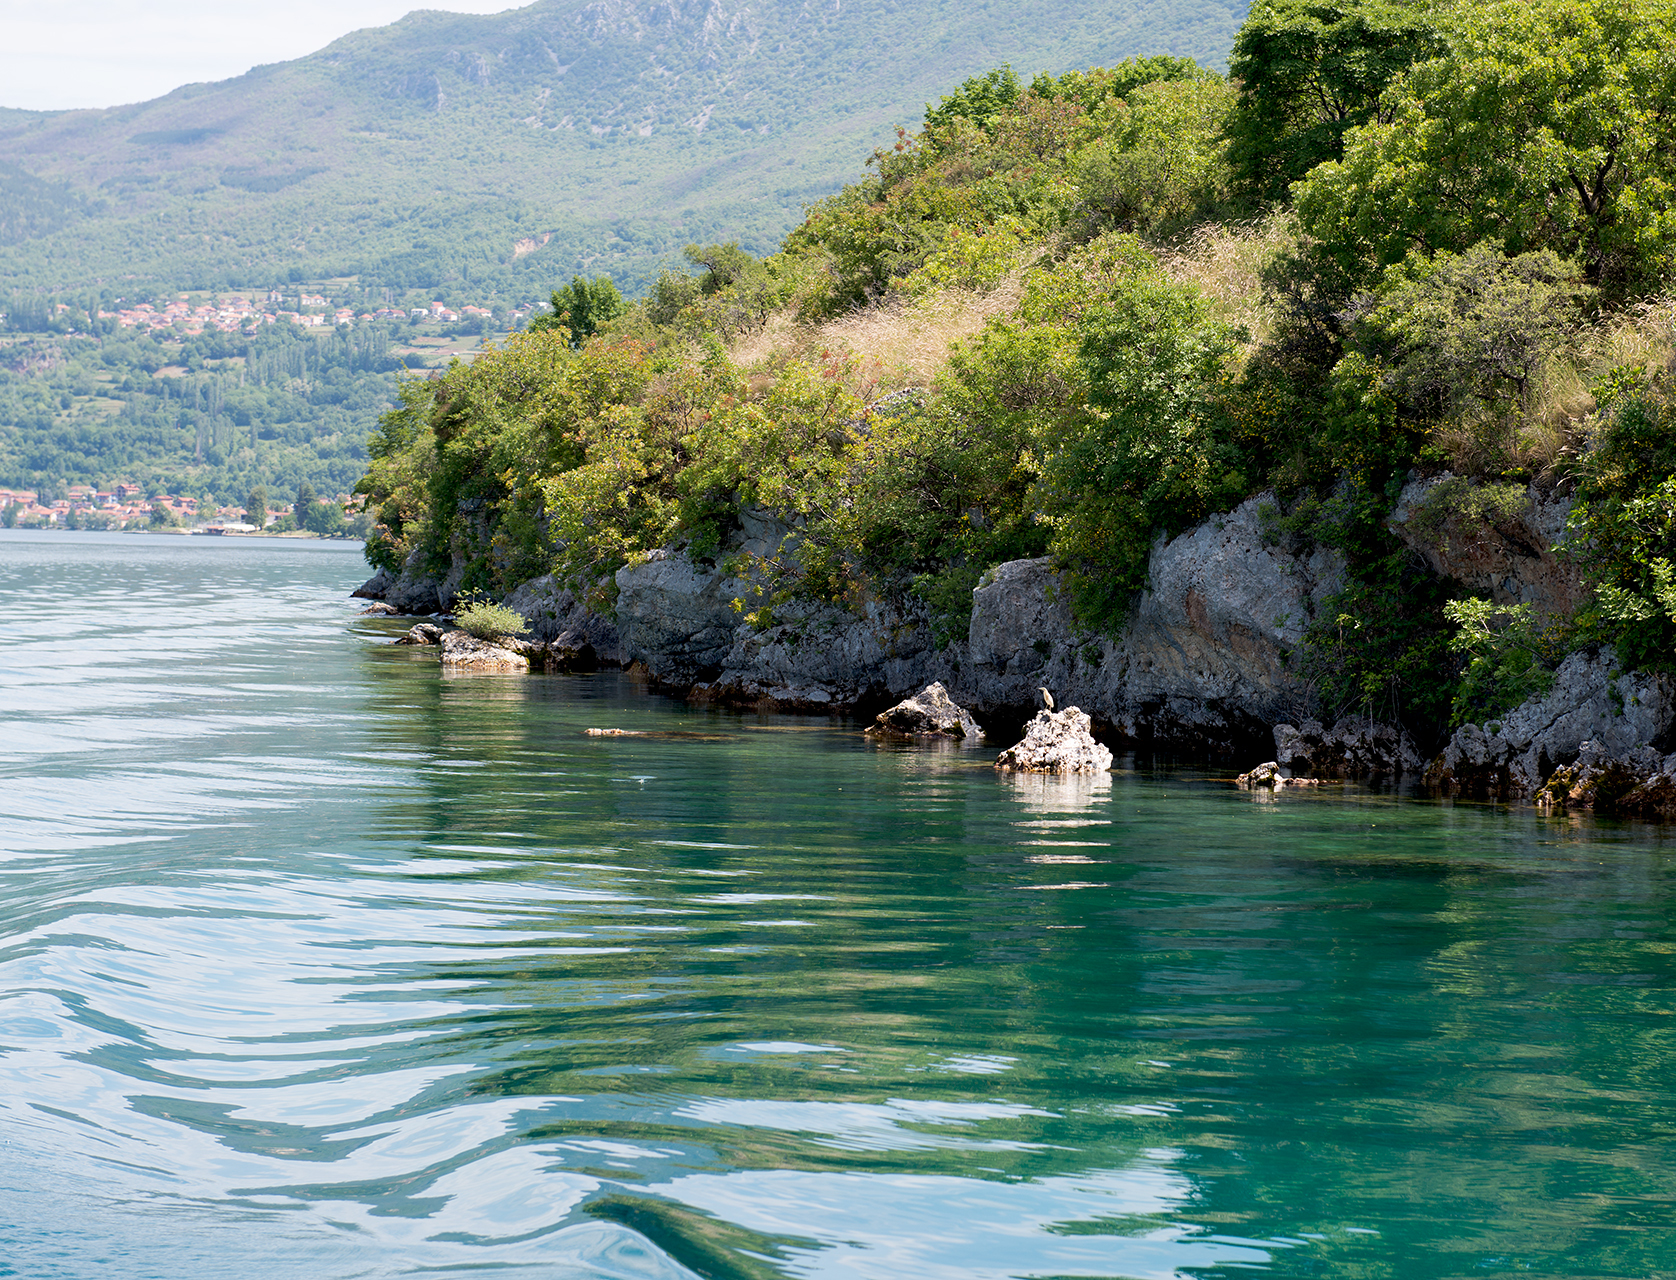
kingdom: Animalia
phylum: Chordata
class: Aves
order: Pelecaniformes
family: Ardeidae
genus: Ardeola
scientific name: Ardeola ralloides
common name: Squacco heron
